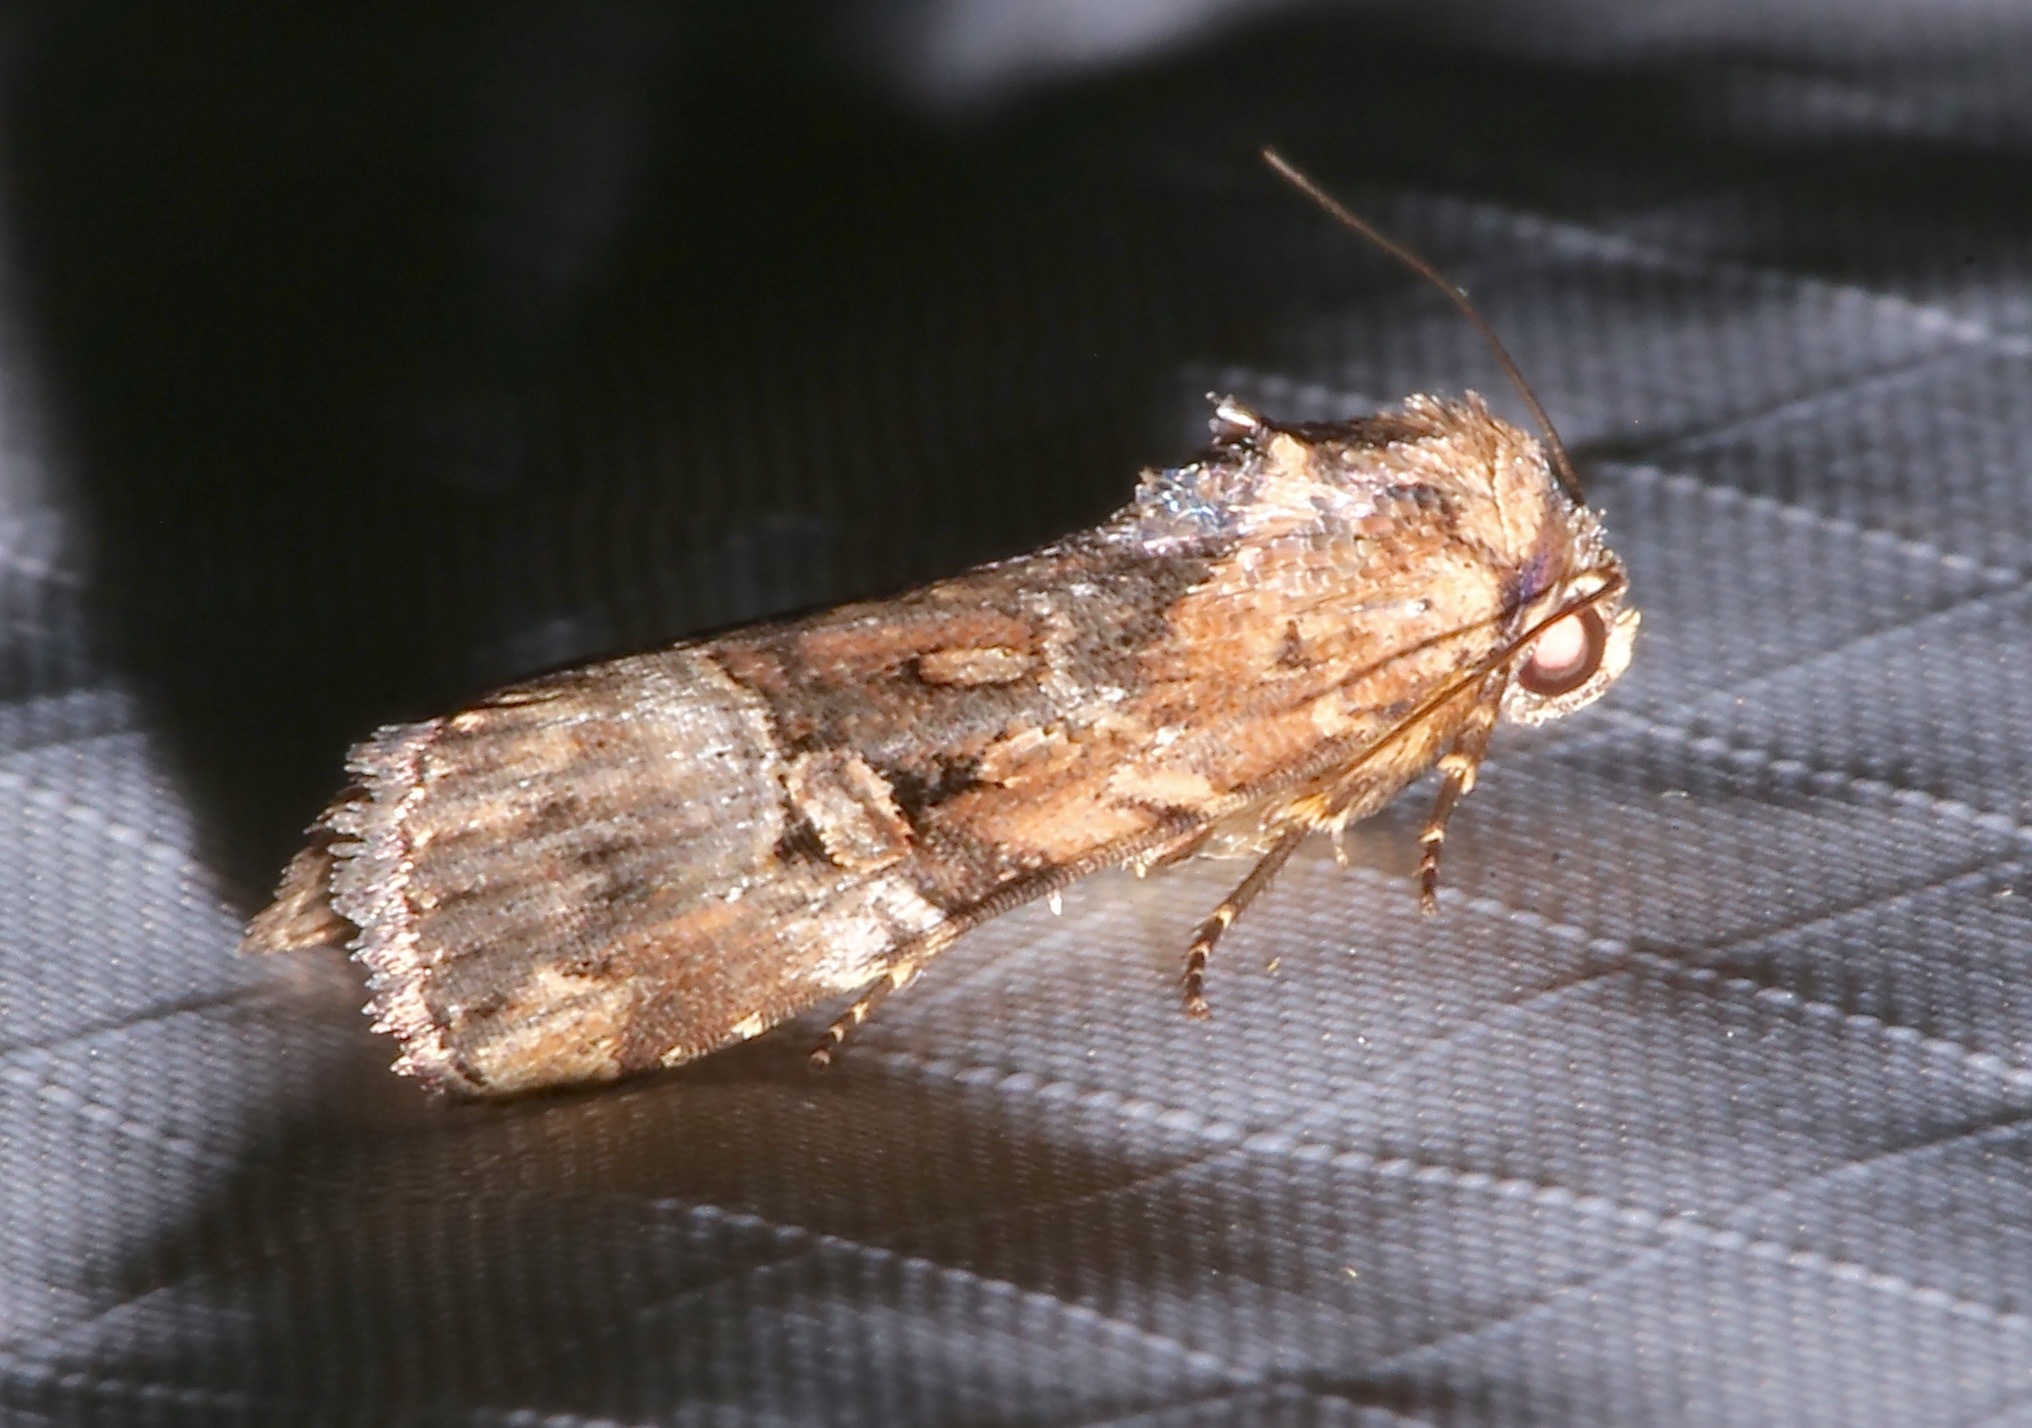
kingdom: Animalia
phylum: Arthropoda
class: Insecta
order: Lepidoptera
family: Noctuidae
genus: Elaphria
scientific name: Elaphria chalcedonia
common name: Chalcedony midget
